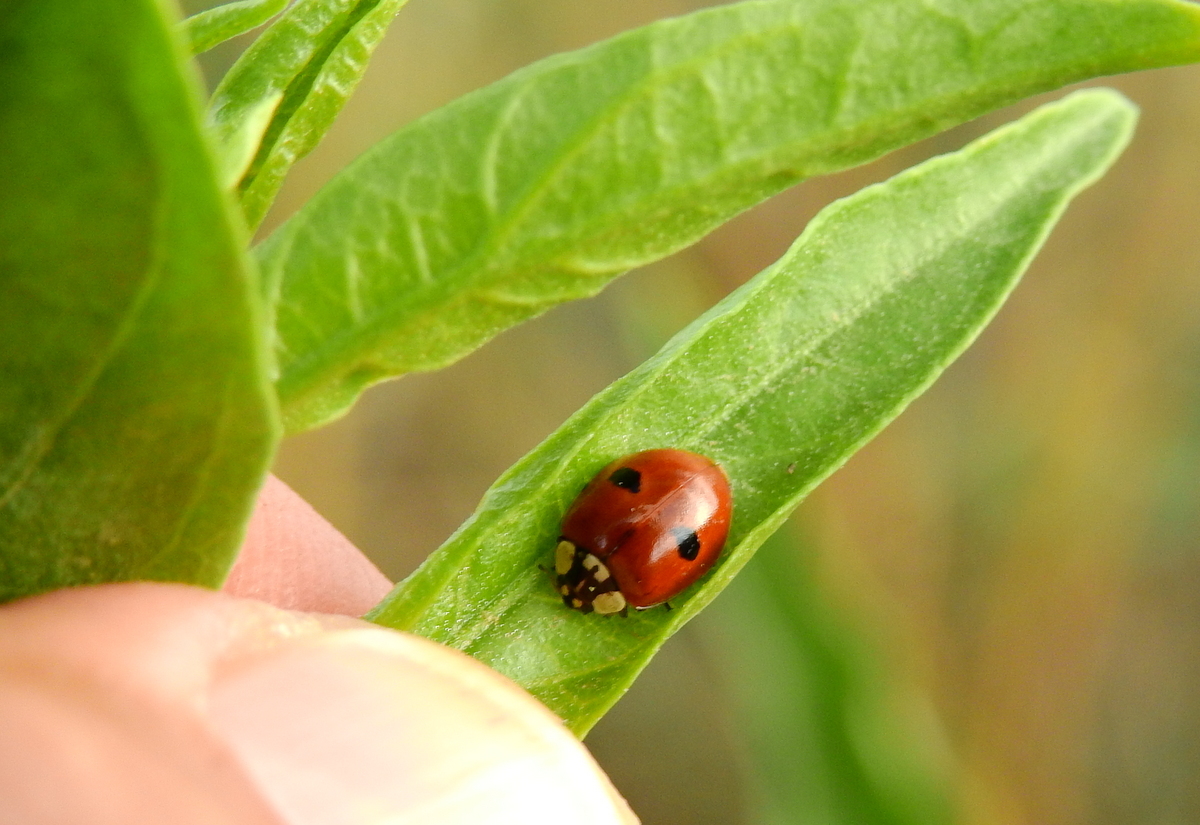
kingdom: Animalia
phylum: Arthropoda
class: Insecta
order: Coleoptera
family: Coccinellidae
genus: Adalia
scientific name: Adalia bipunctata
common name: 2-spot ladybird
